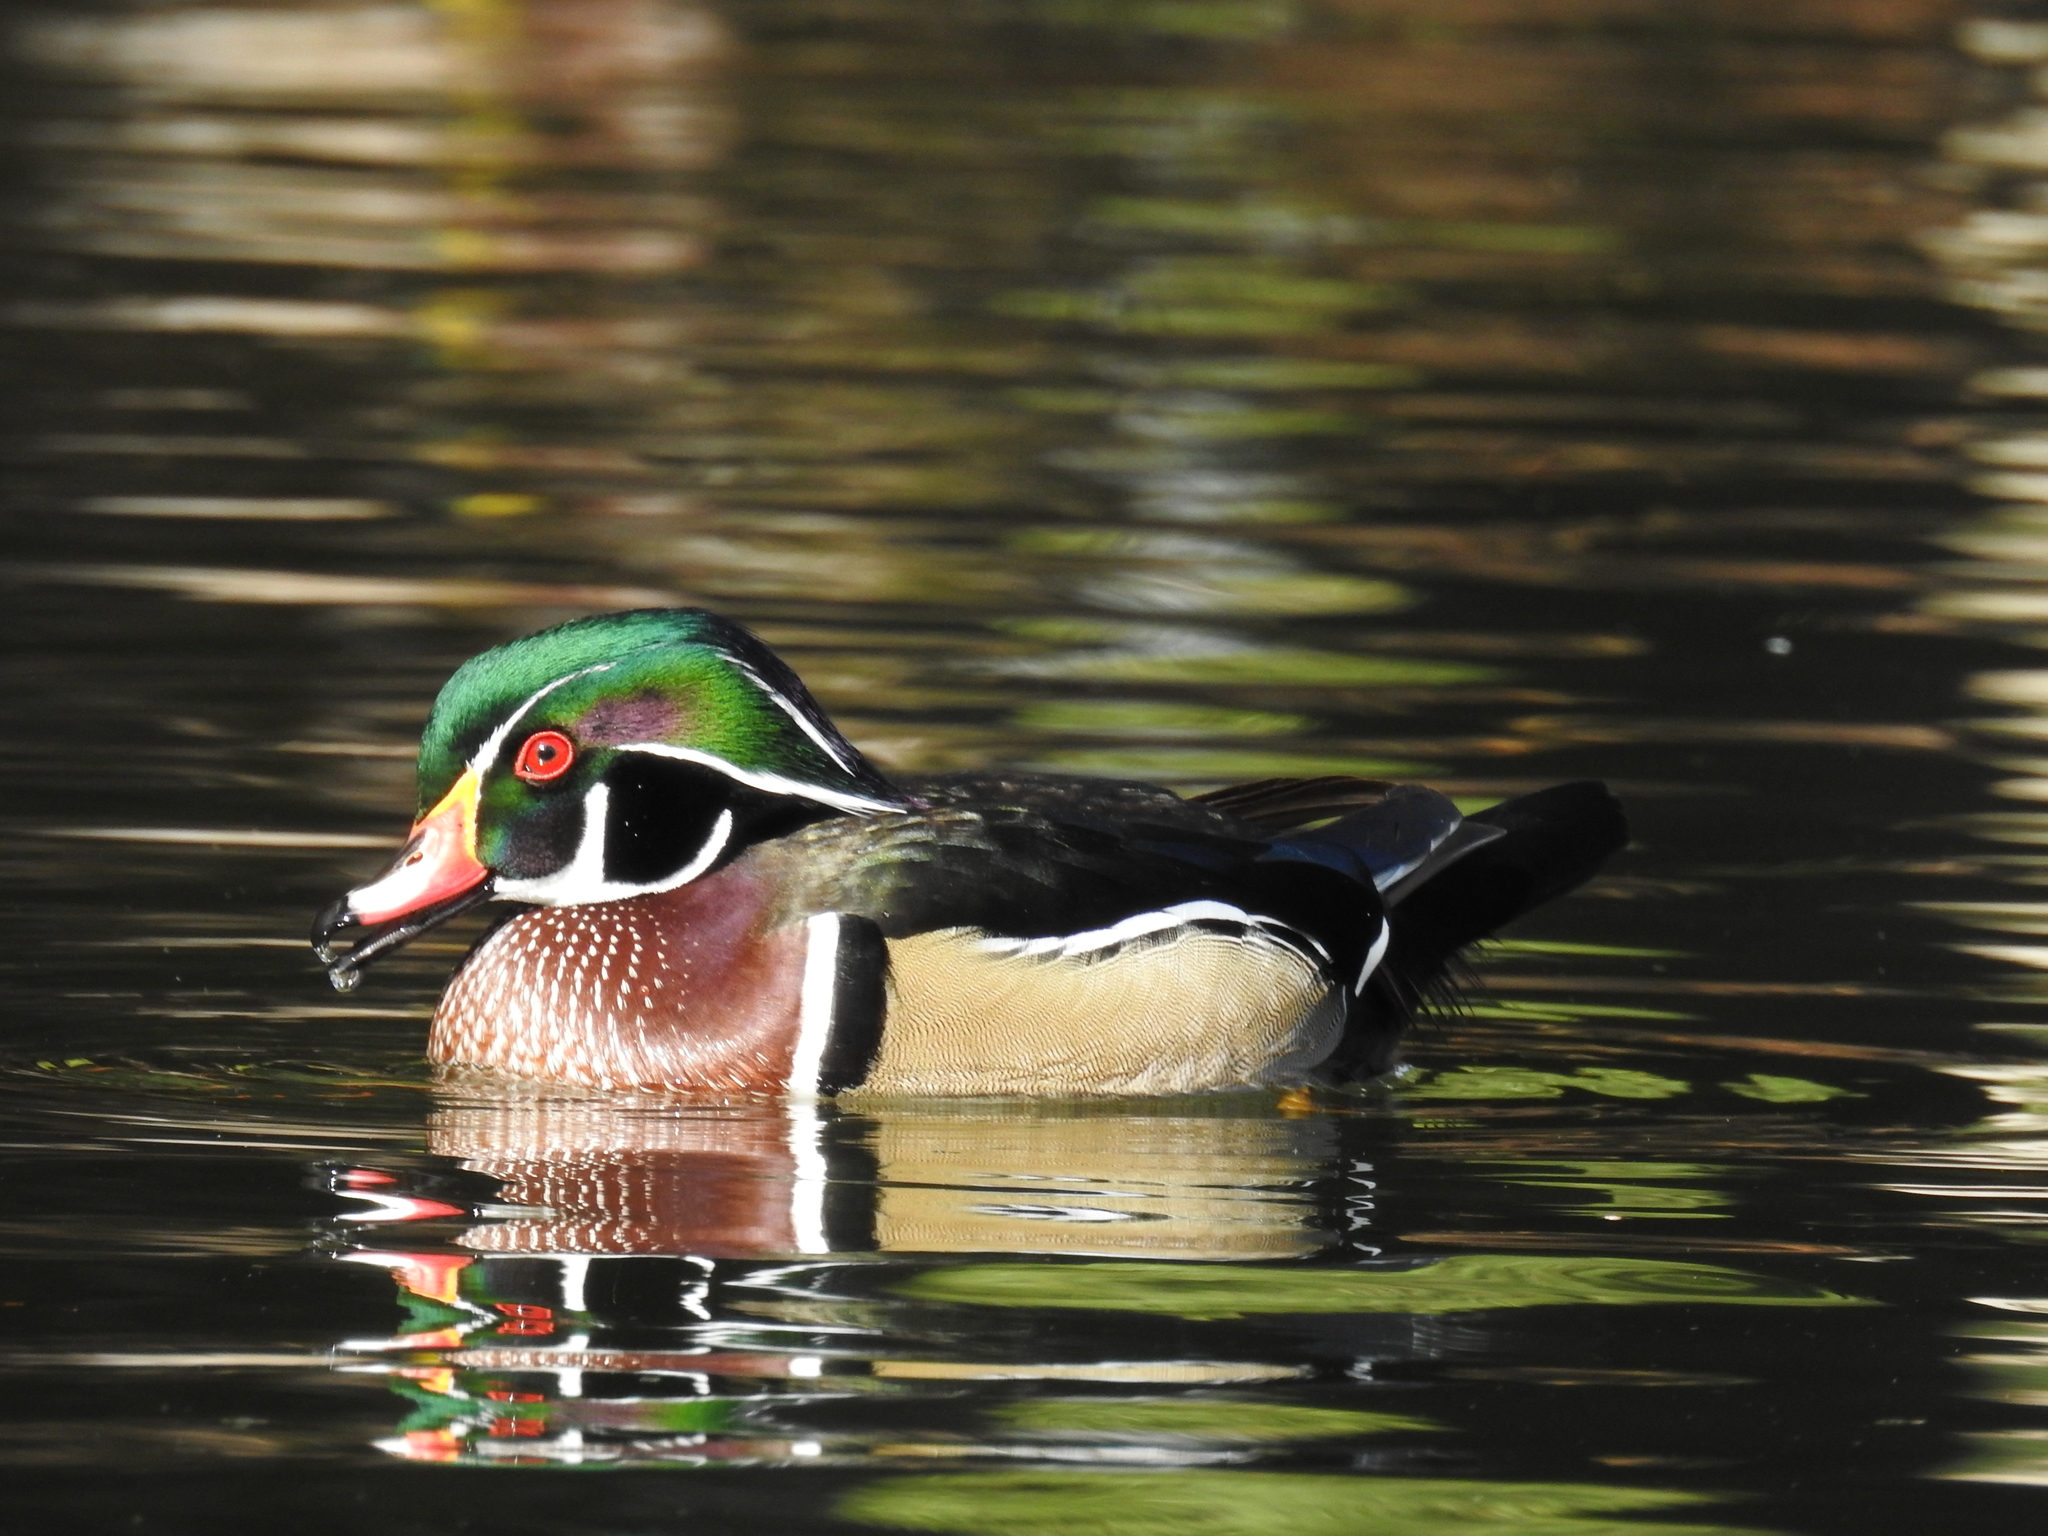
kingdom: Animalia
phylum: Chordata
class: Aves
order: Anseriformes
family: Anatidae
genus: Aix
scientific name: Aix sponsa
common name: Wood duck
